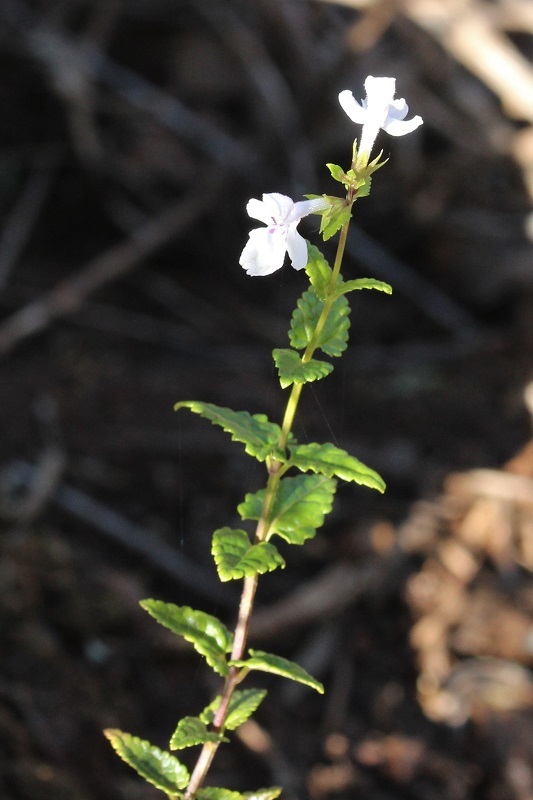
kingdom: Plantae
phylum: Tracheophyta
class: Magnoliopsida
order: Lamiales
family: Lamiaceae
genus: Stachys
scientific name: Stachys aethiopica
